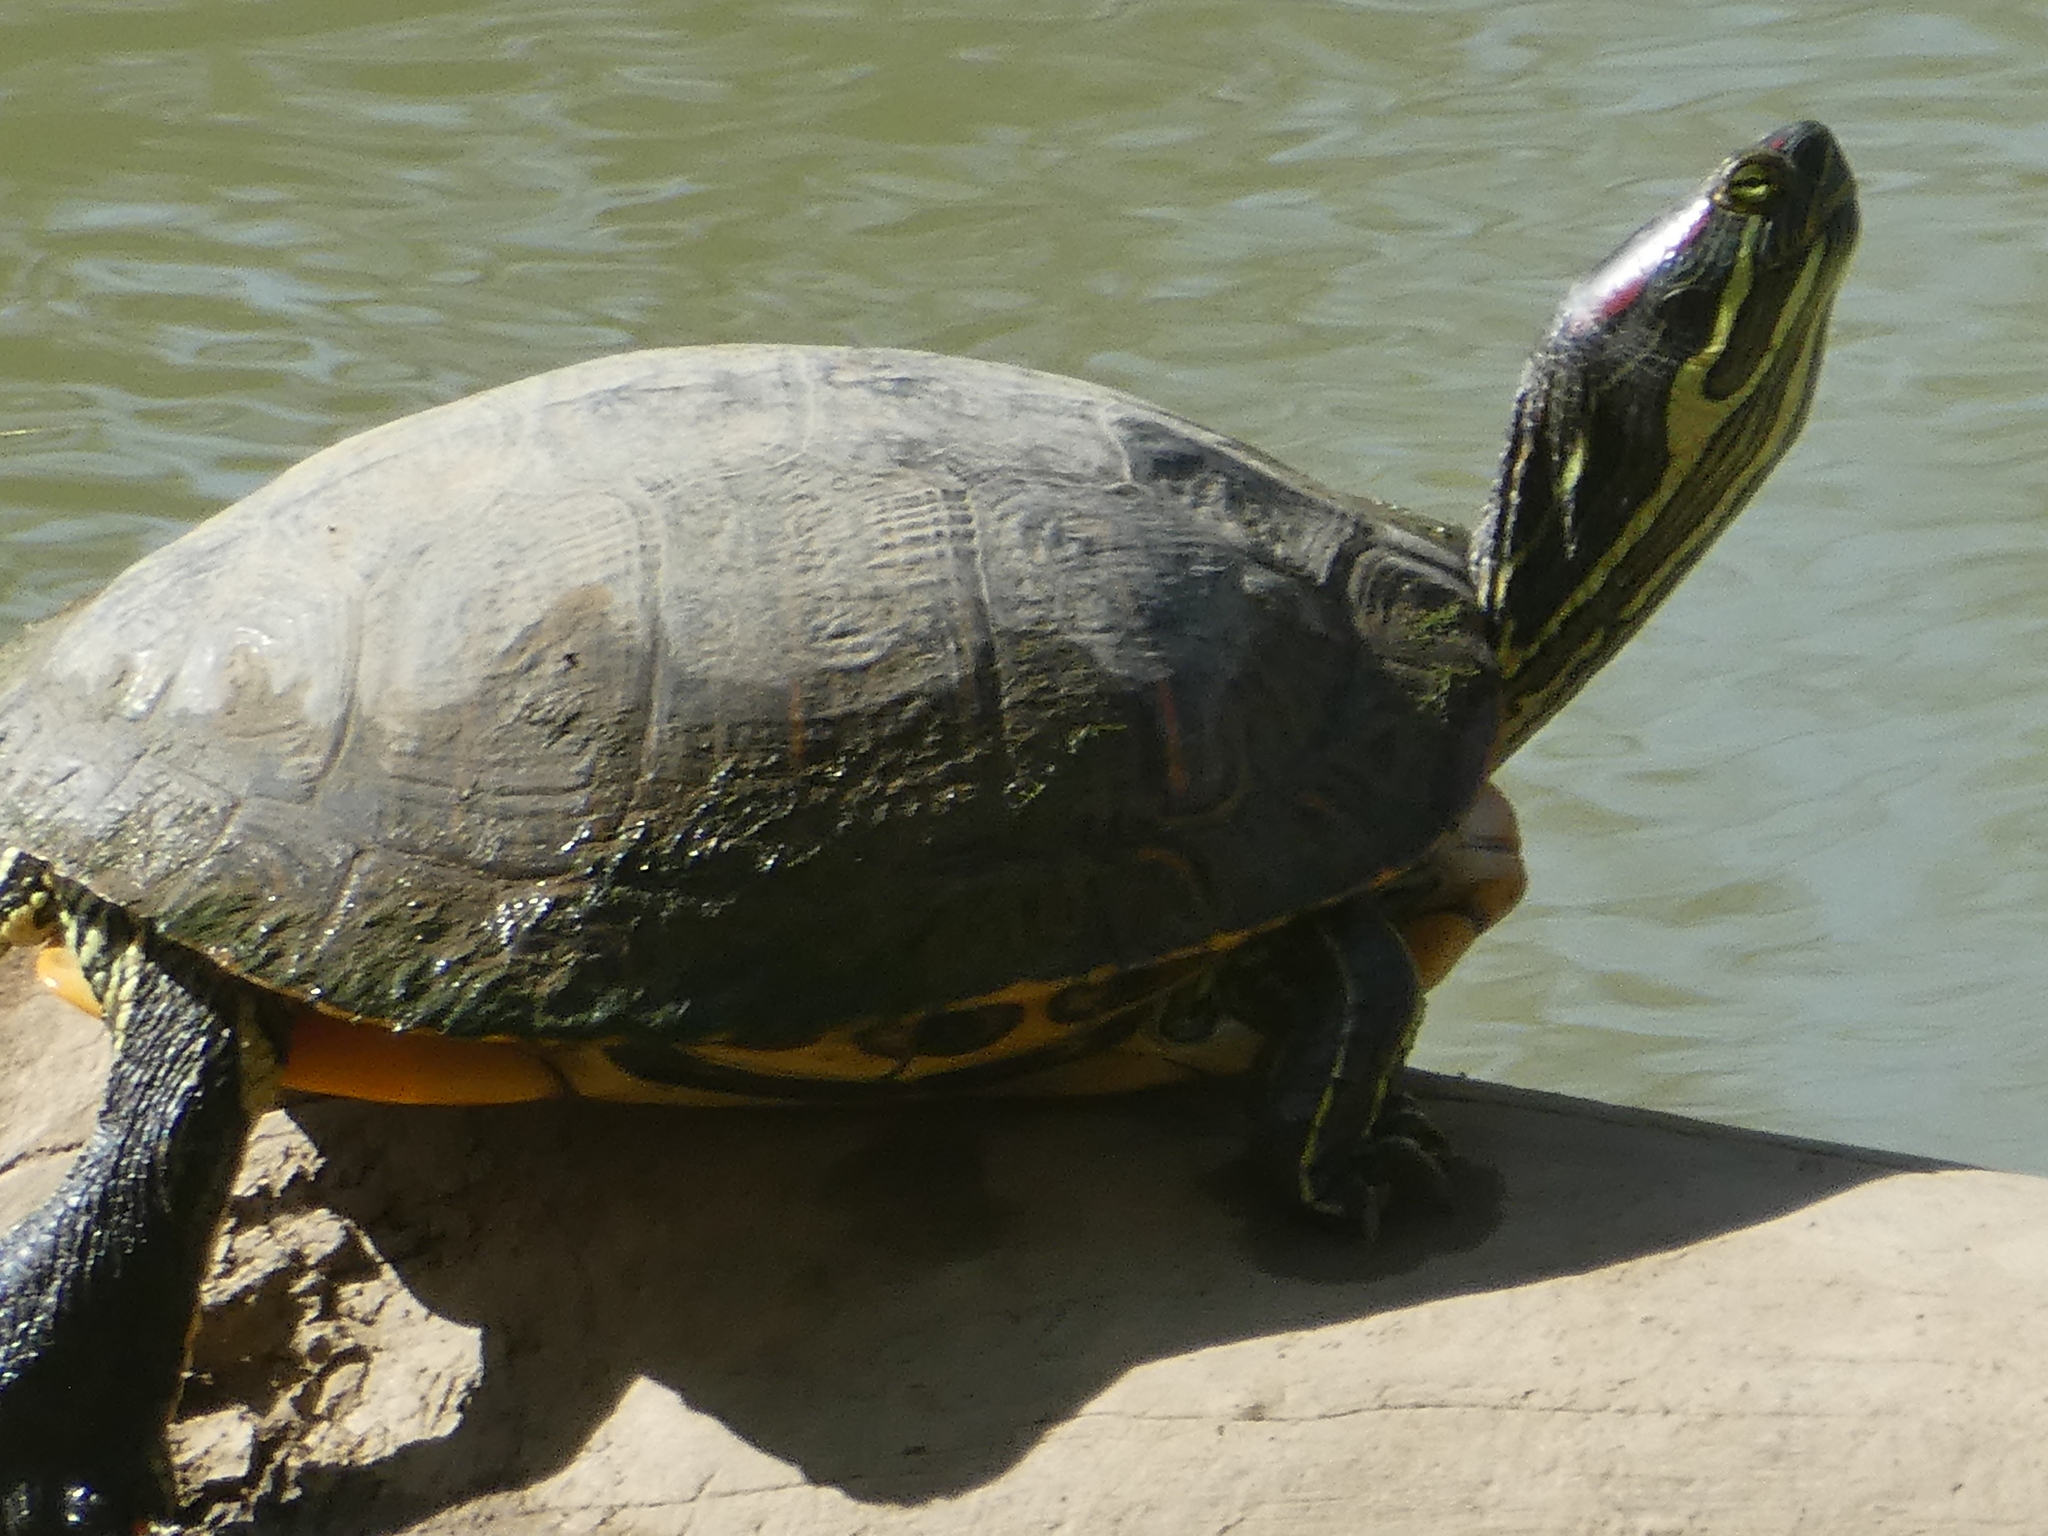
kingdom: Animalia
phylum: Chordata
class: Testudines
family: Emydidae
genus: Trachemys
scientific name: Trachemys scripta
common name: Slider
